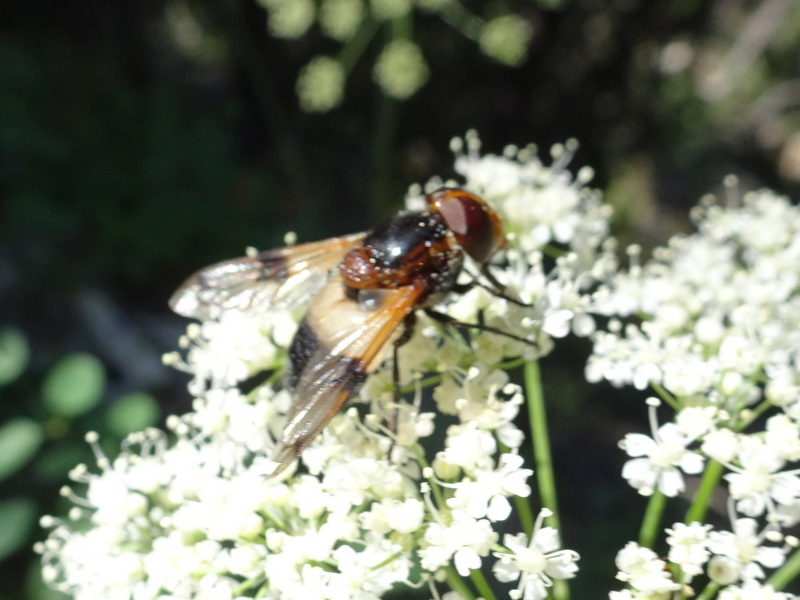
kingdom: Animalia
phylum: Arthropoda
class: Insecta
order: Diptera
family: Syrphidae
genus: Volucella
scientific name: Volucella pellucens
